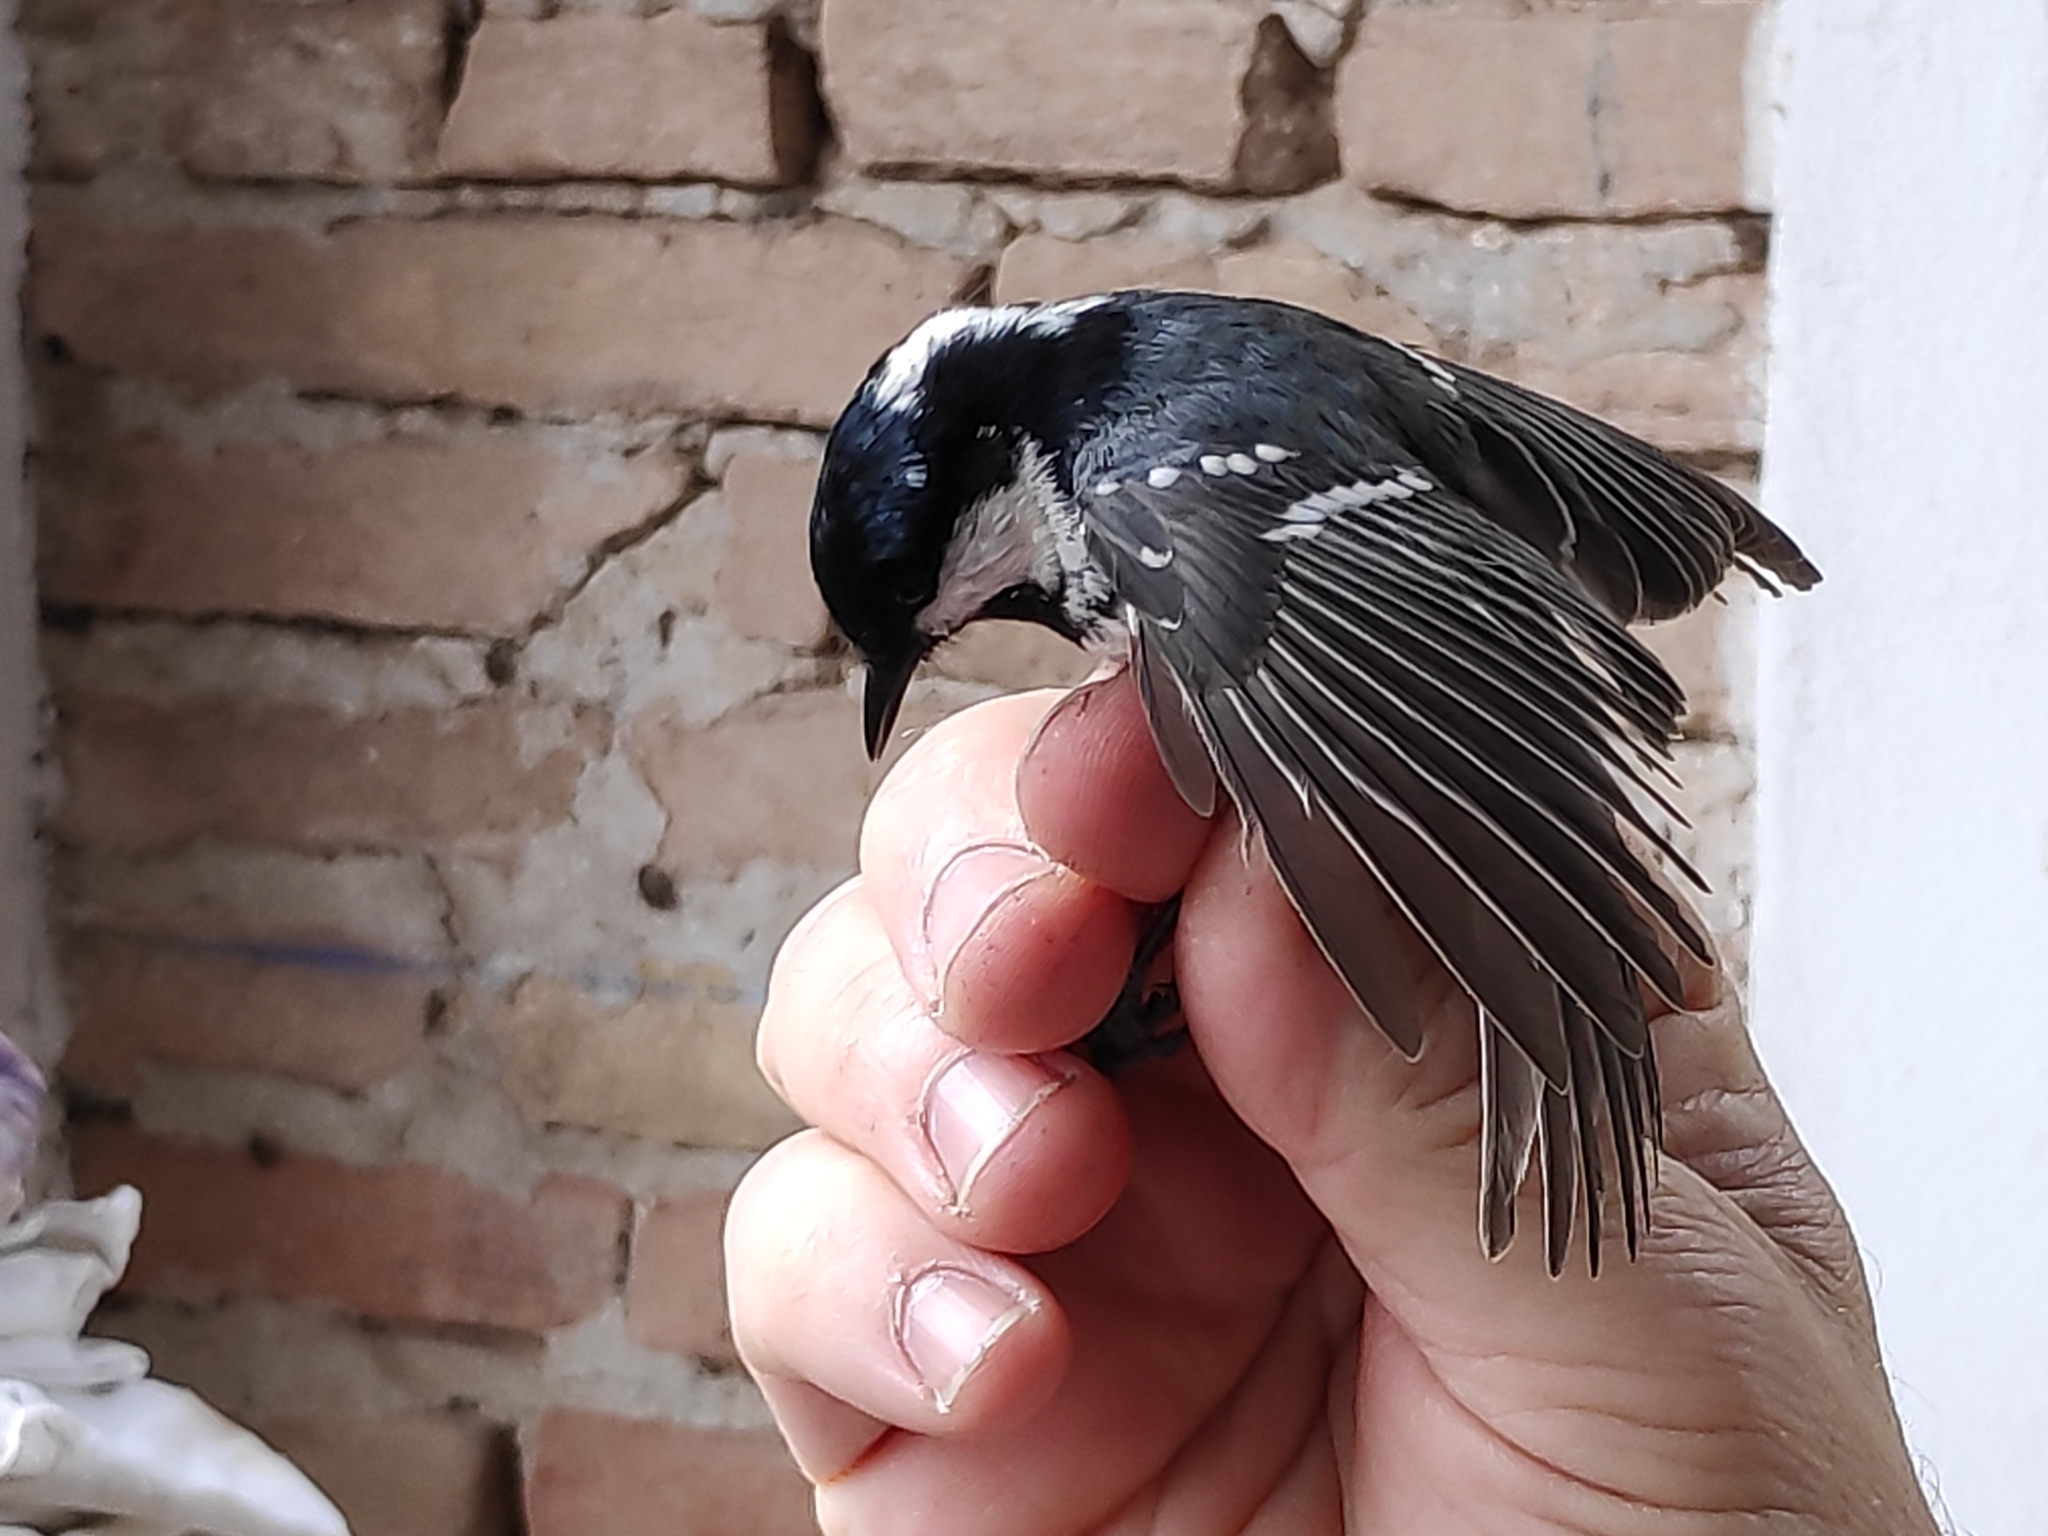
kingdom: Animalia
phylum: Chordata
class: Aves
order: Passeriformes
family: Paridae
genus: Periparus
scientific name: Periparus ater
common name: Coal tit
